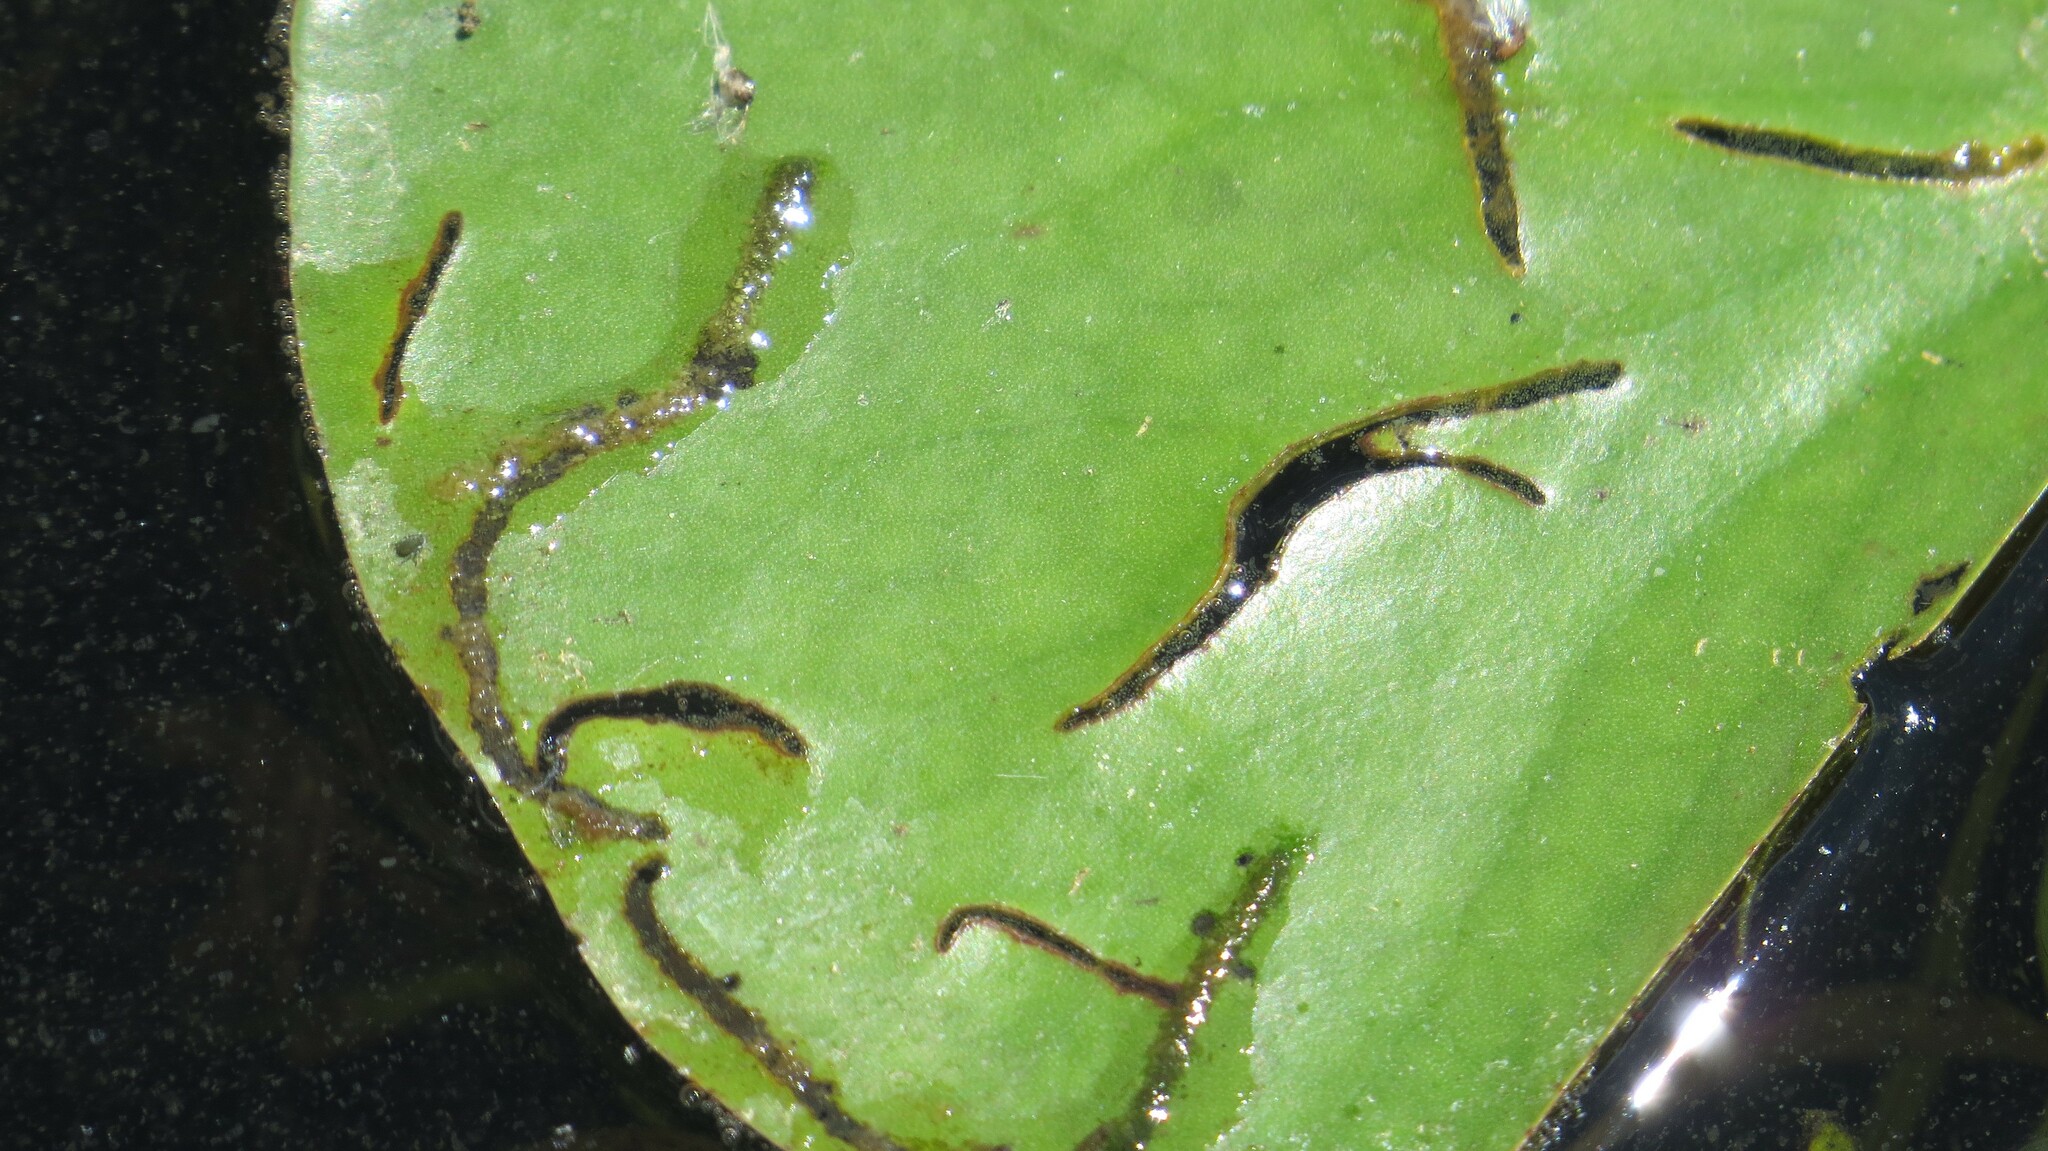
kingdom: Animalia
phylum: Arthropoda
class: Insecta
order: Diptera
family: Chironomidae
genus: Polypedilum
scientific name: Polypedilum braseniae
